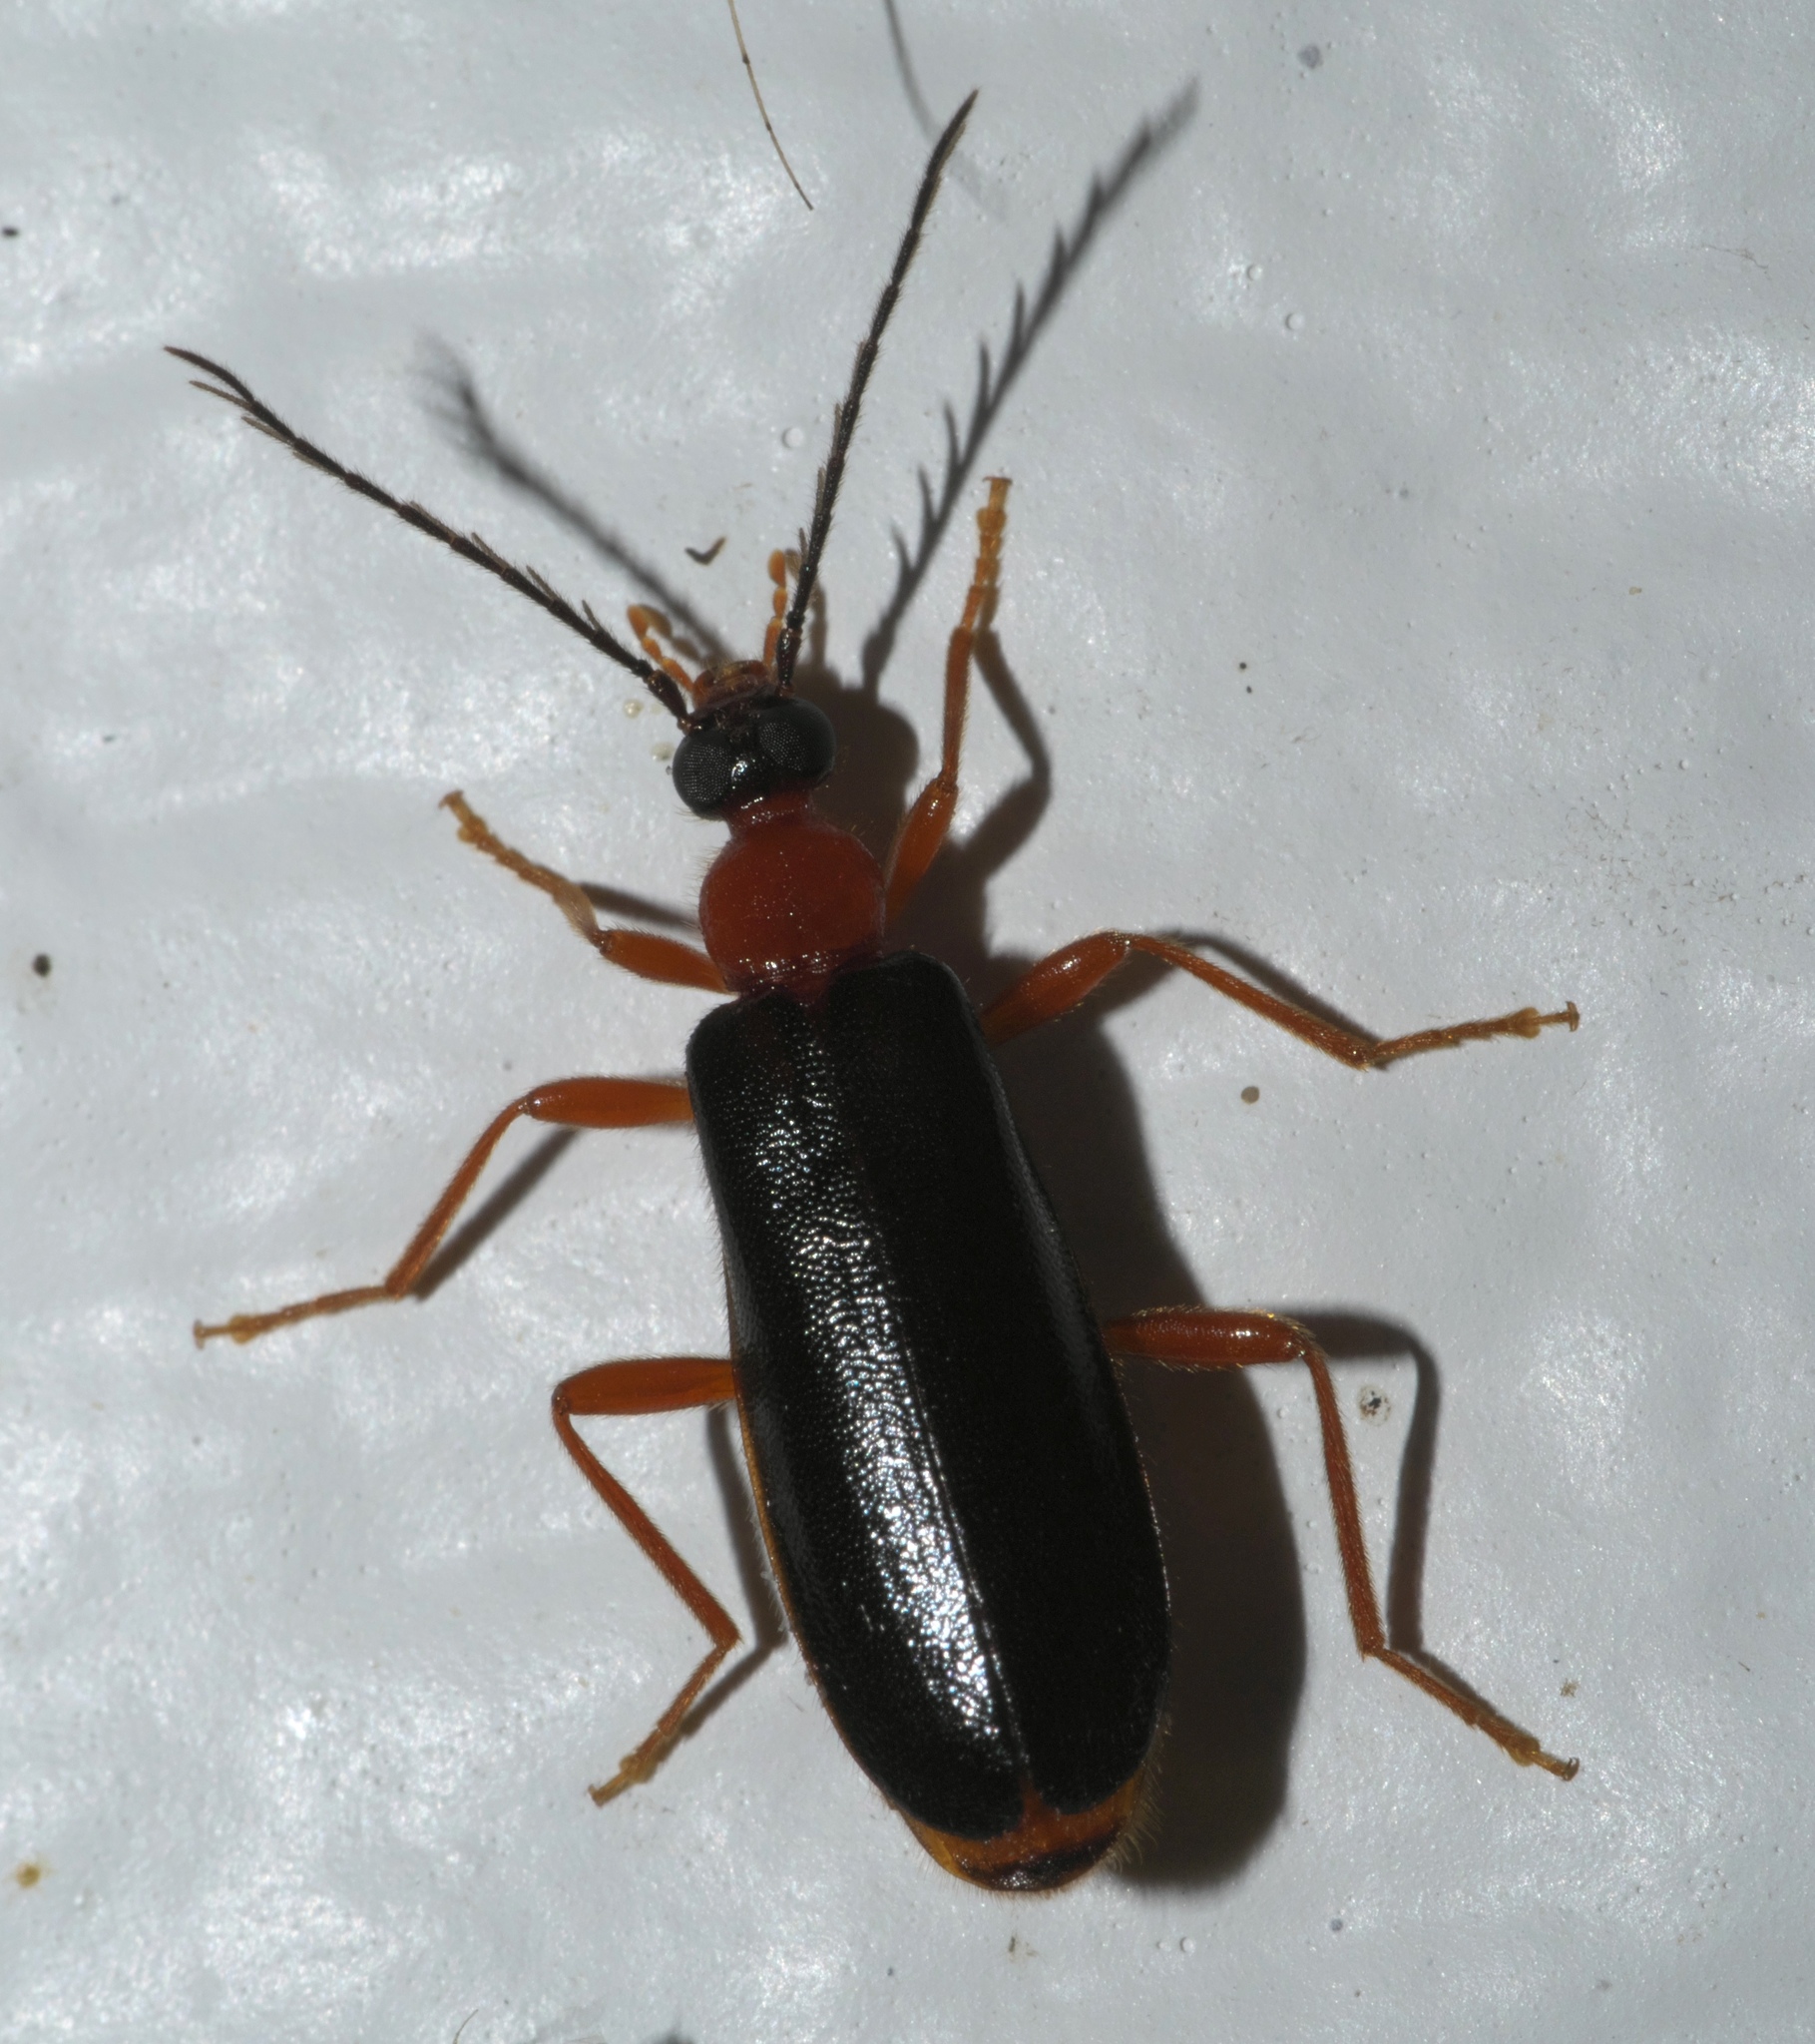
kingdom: Animalia
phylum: Arthropoda
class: Insecta
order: Coleoptera
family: Pyrochroidae
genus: Dendroides
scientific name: Dendroides canadensis
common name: Canada fire-colored beetle
